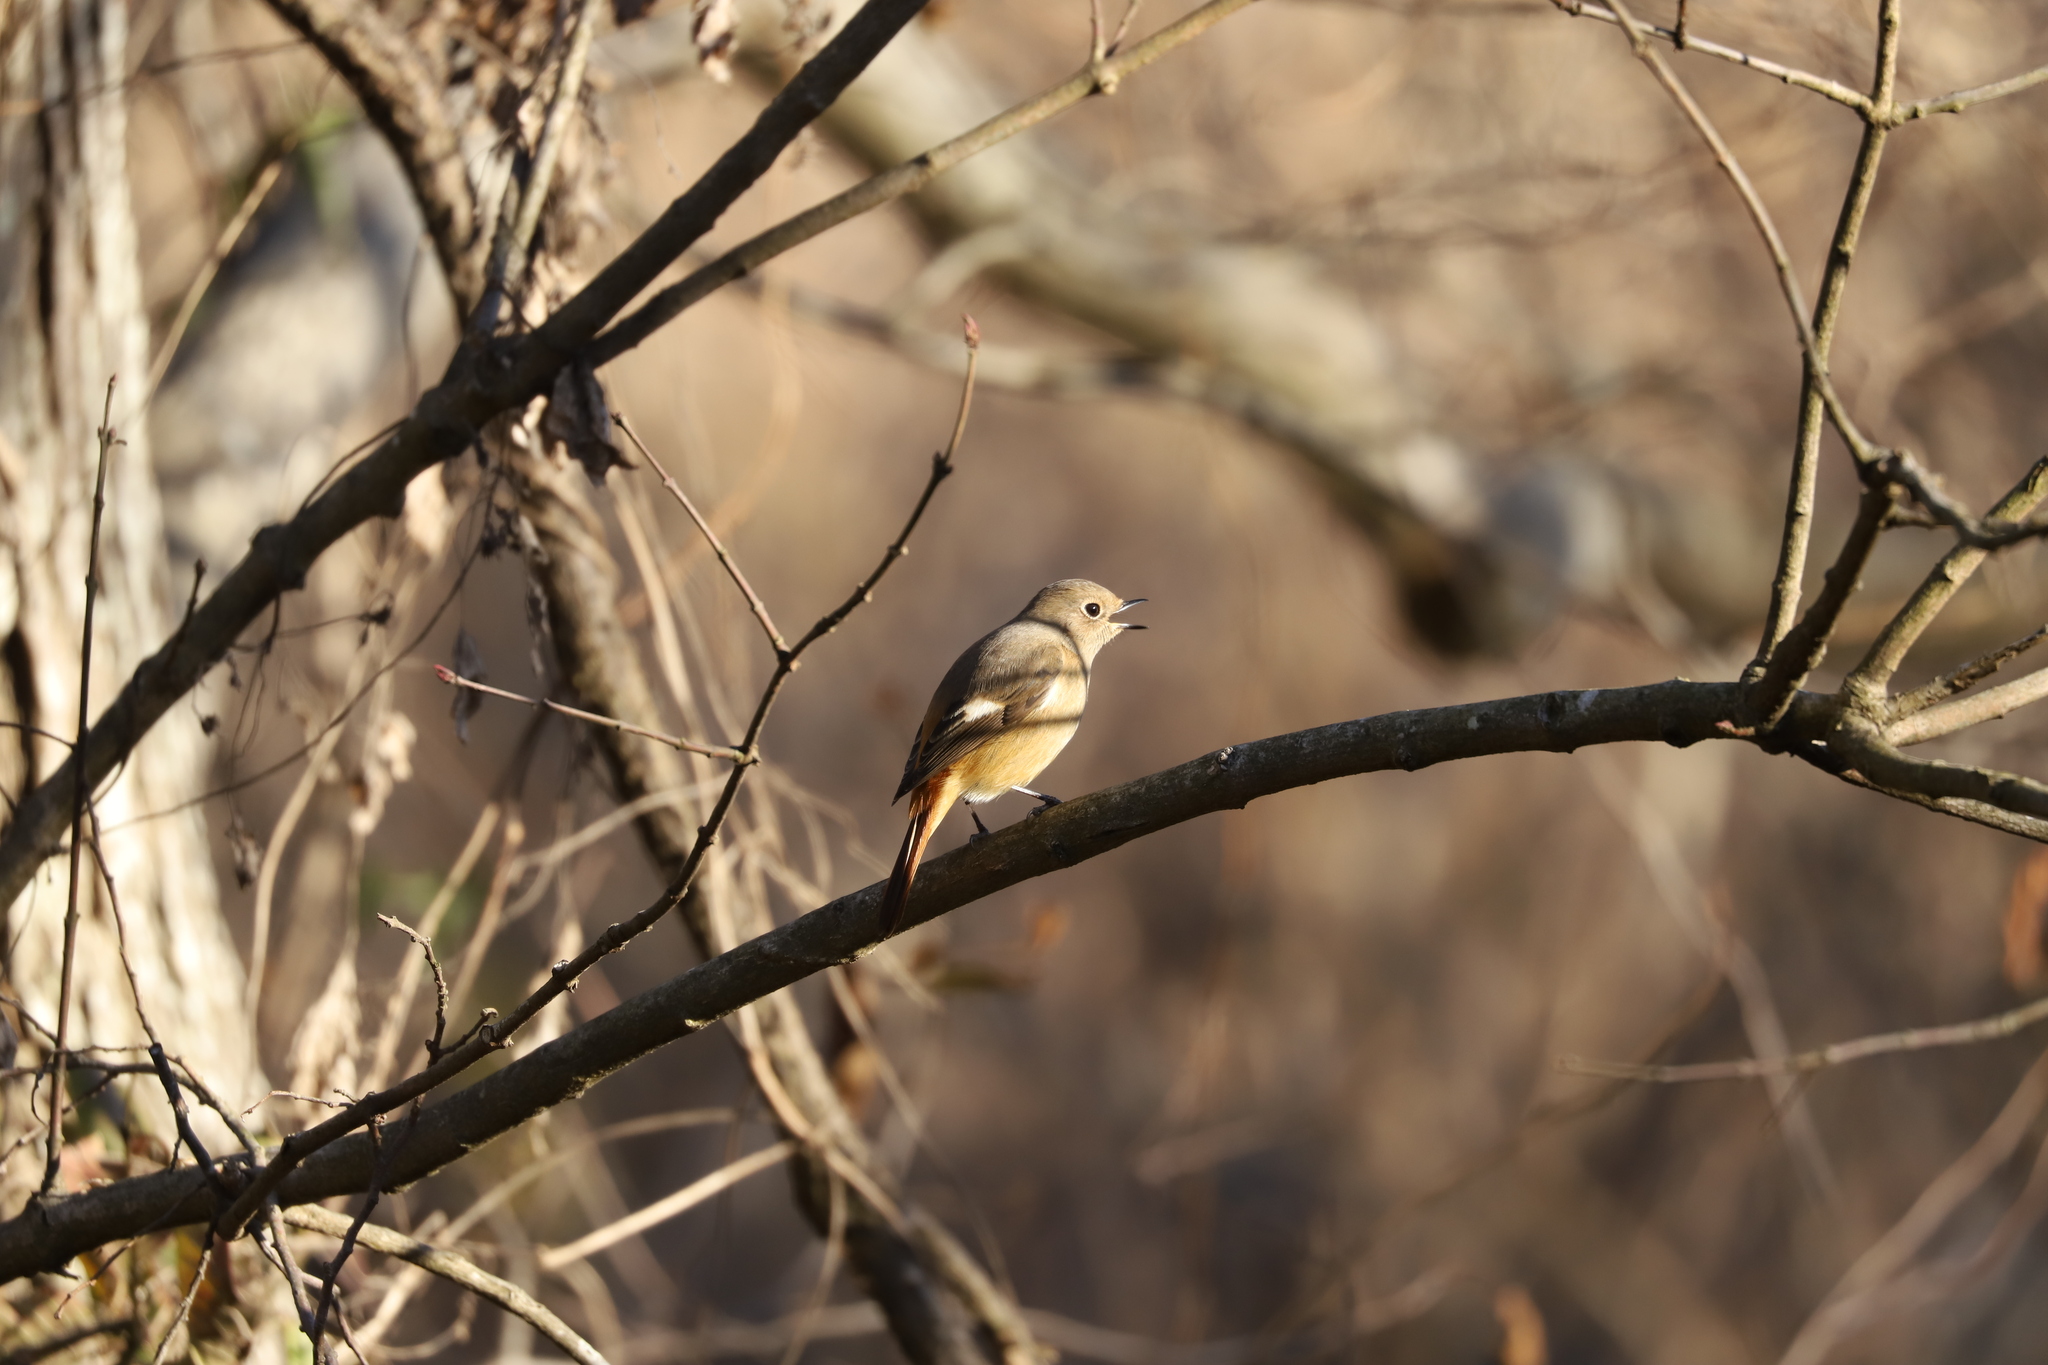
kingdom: Animalia
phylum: Chordata
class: Aves
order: Passeriformes
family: Muscicapidae
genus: Phoenicurus
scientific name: Phoenicurus auroreus
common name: Daurian redstart
